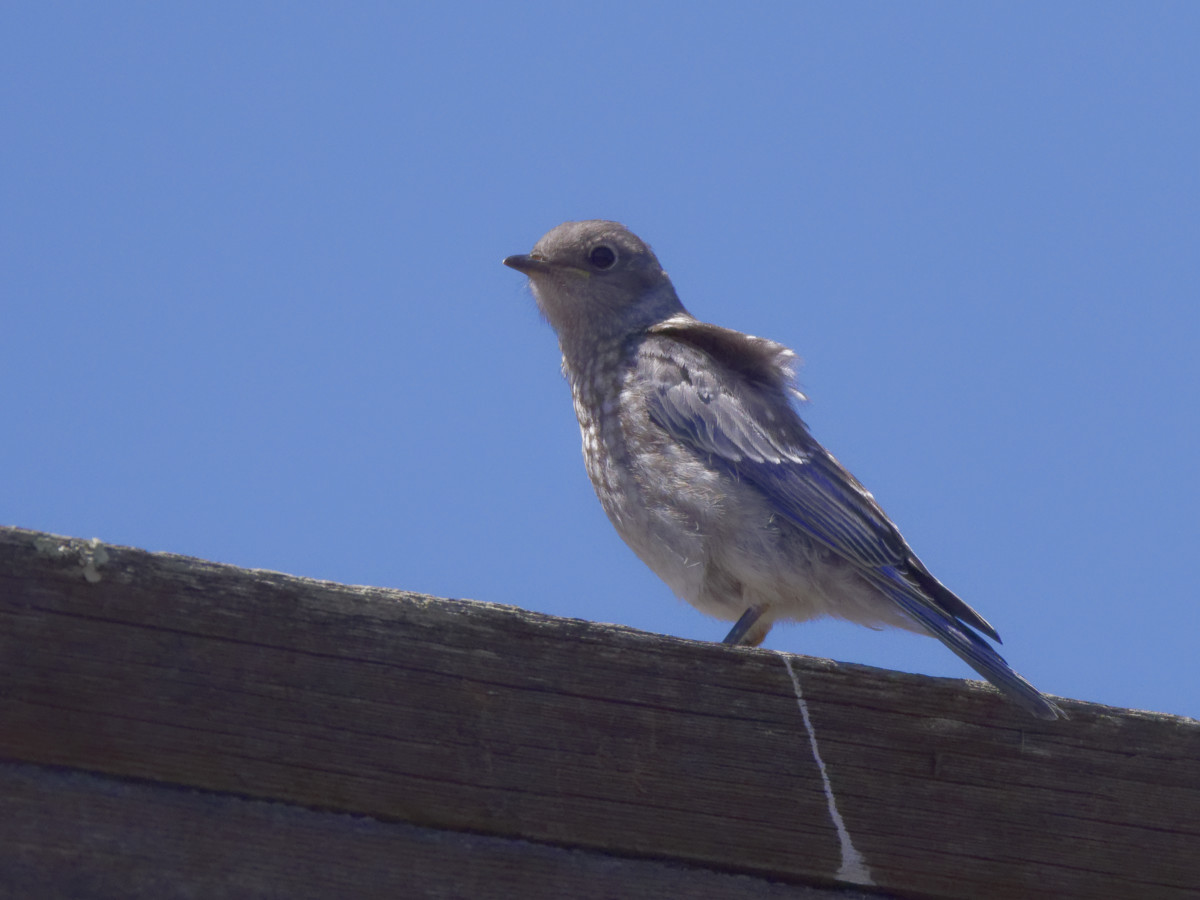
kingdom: Animalia
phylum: Chordata
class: Aves
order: Passeriformes
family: Turdidae
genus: Sialia
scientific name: Sialia mexicana
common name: Western bluebird
